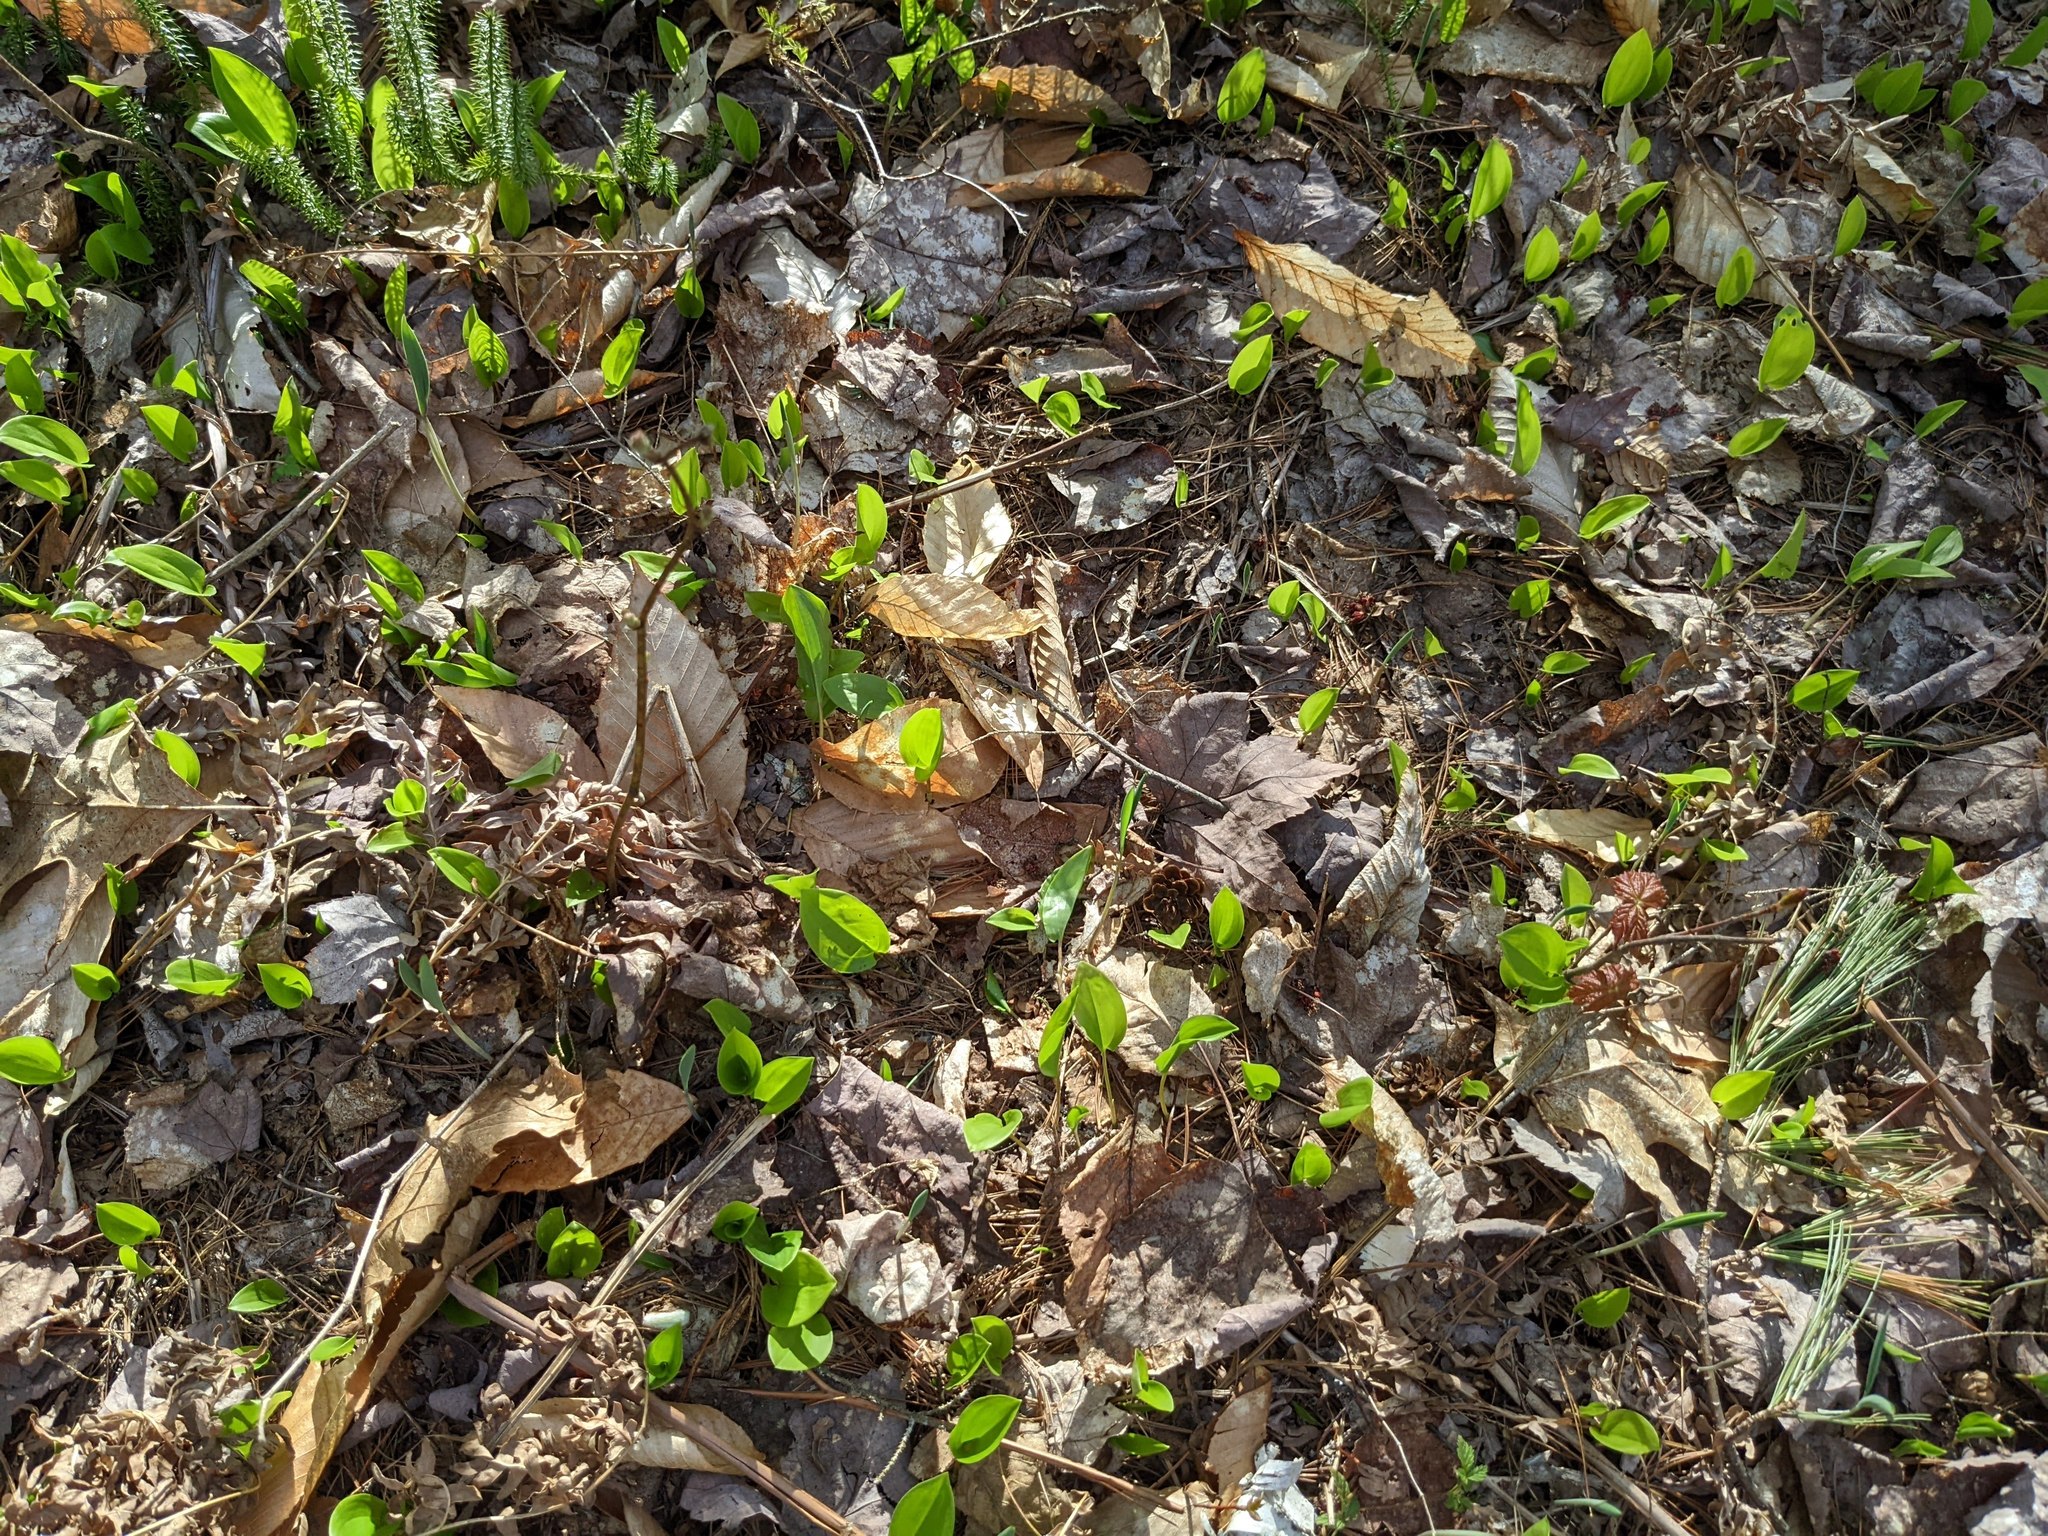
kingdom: Plantae
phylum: Tracheophyta
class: Liliopsida
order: Asparagales
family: Asparagaceae
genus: Maianthemum
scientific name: Maianthemum canadense
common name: False lily-of-the-valley
